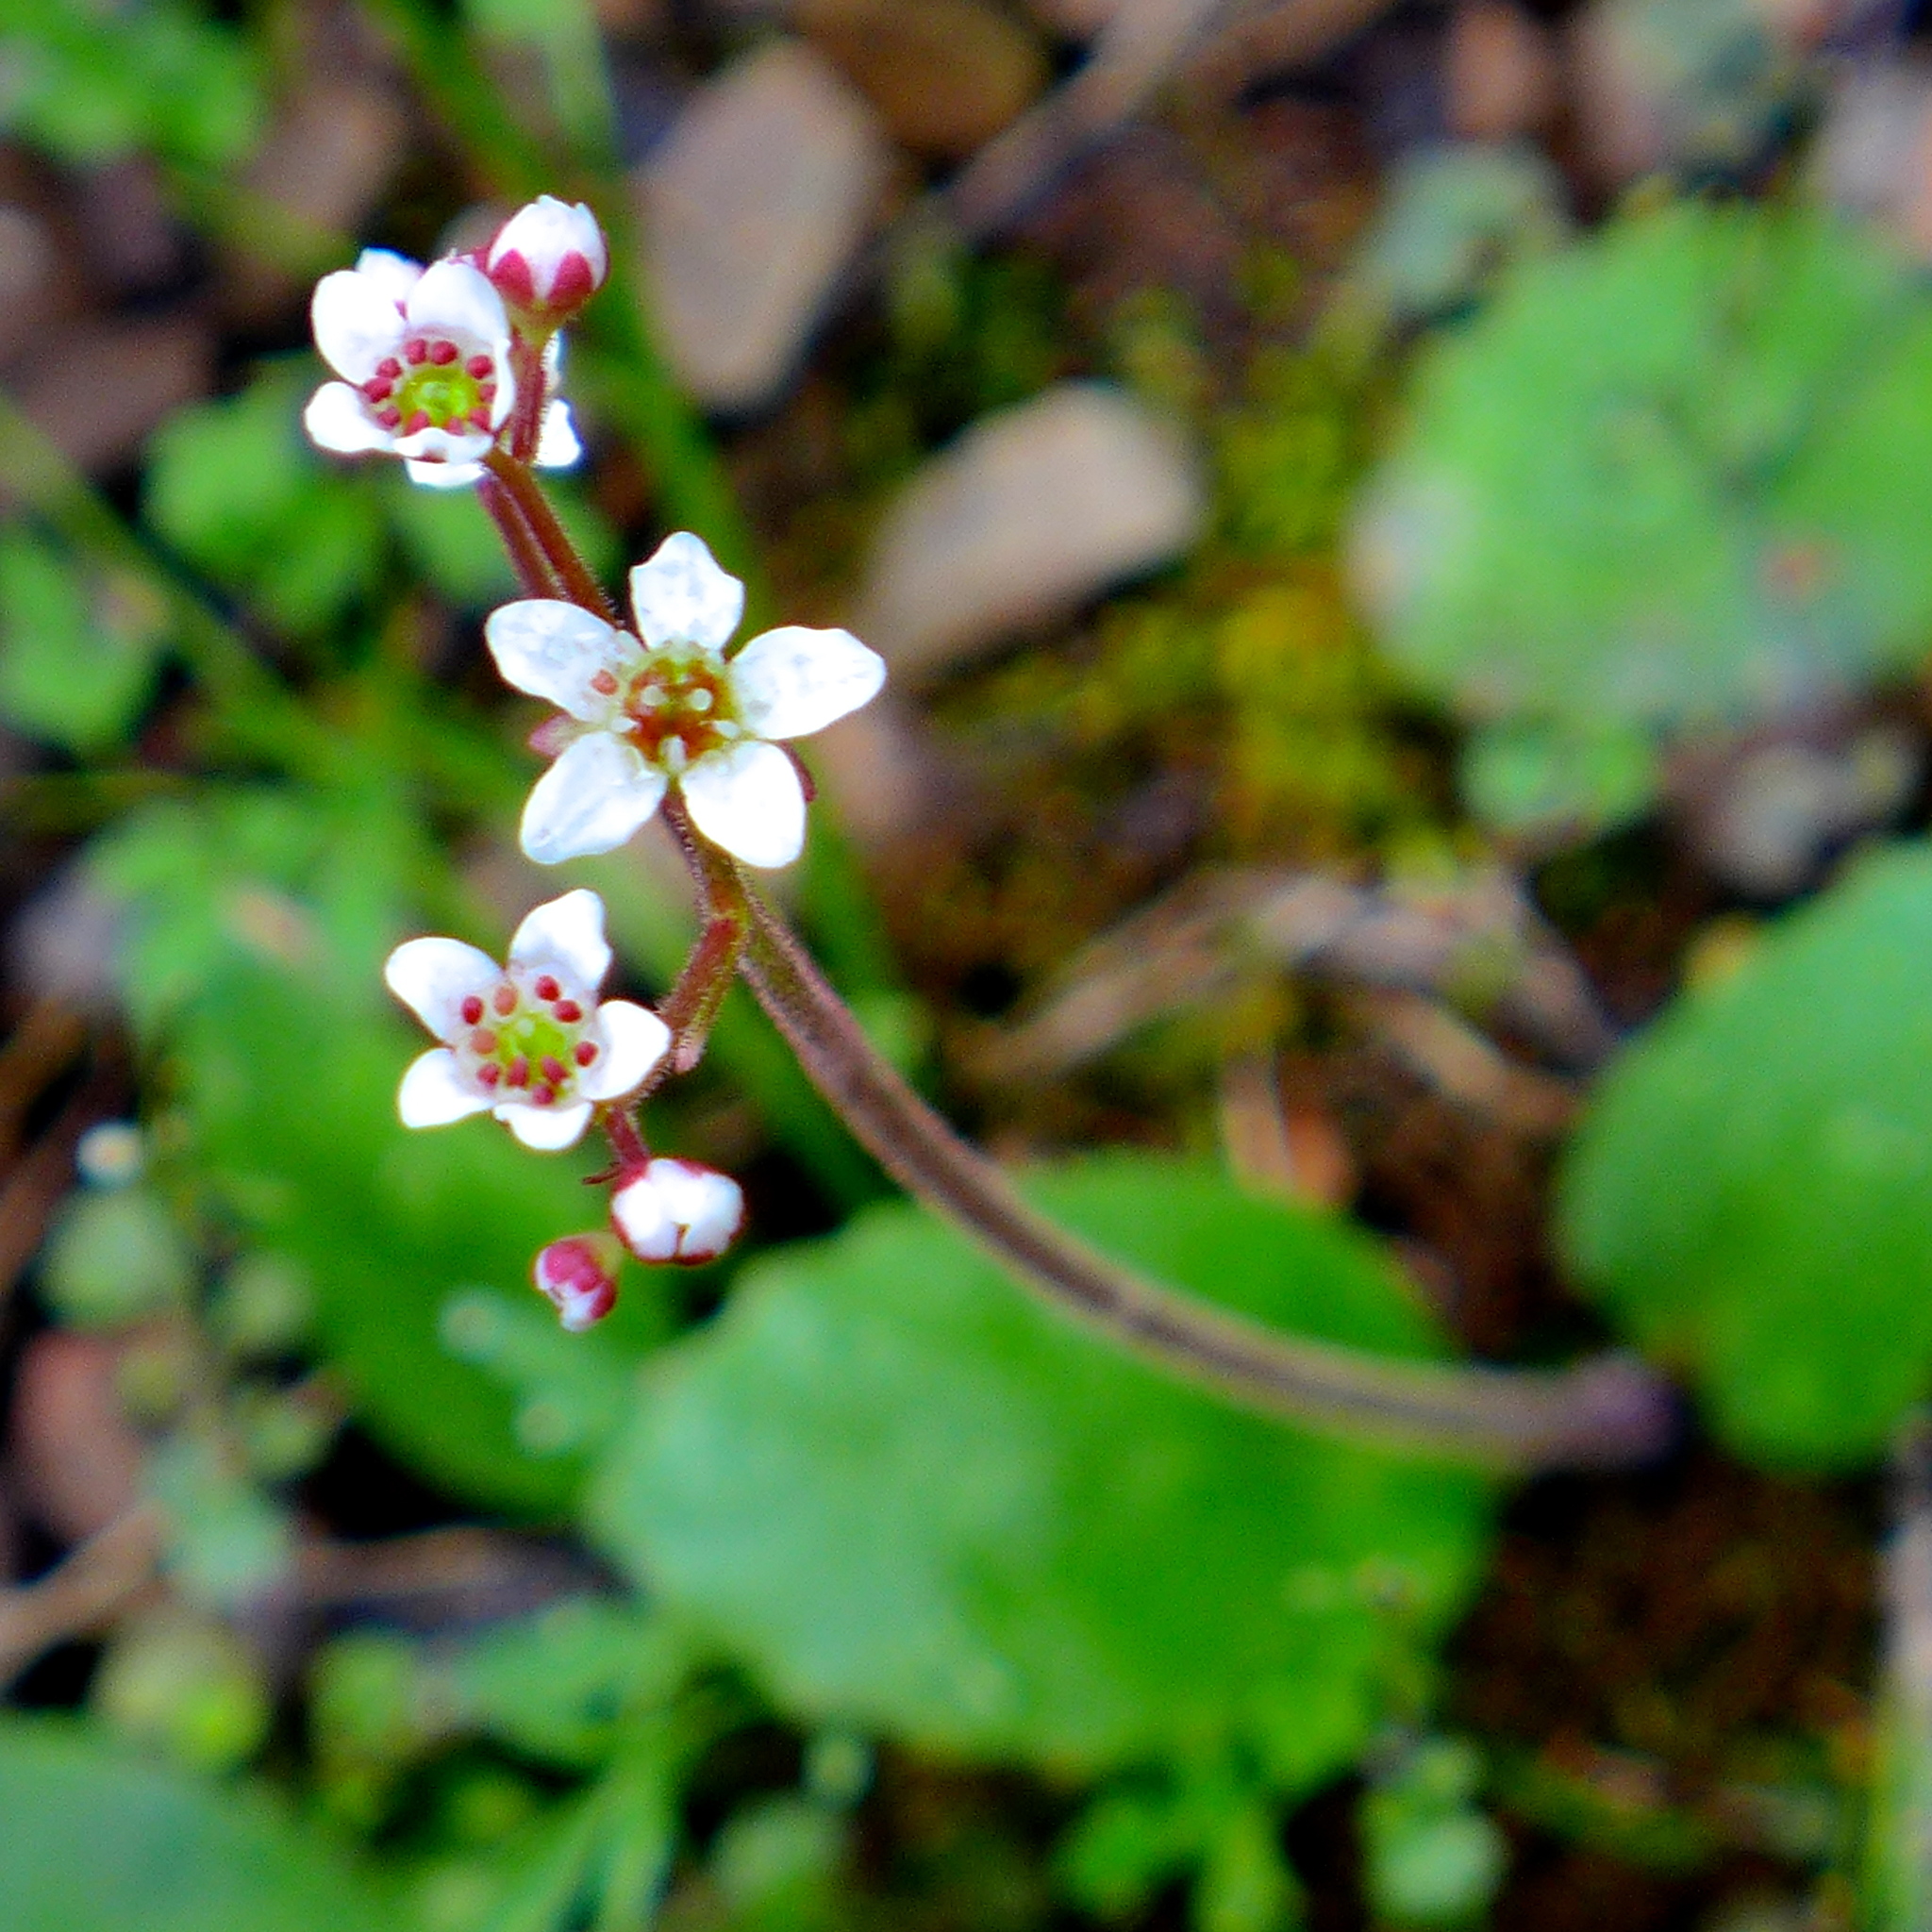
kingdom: Plantae
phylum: Tracheophyta
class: Magnoliopsida
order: Saxifragales
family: Saxifragaceae
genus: Micranthes
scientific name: Micranthes californica
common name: California saxifrage
